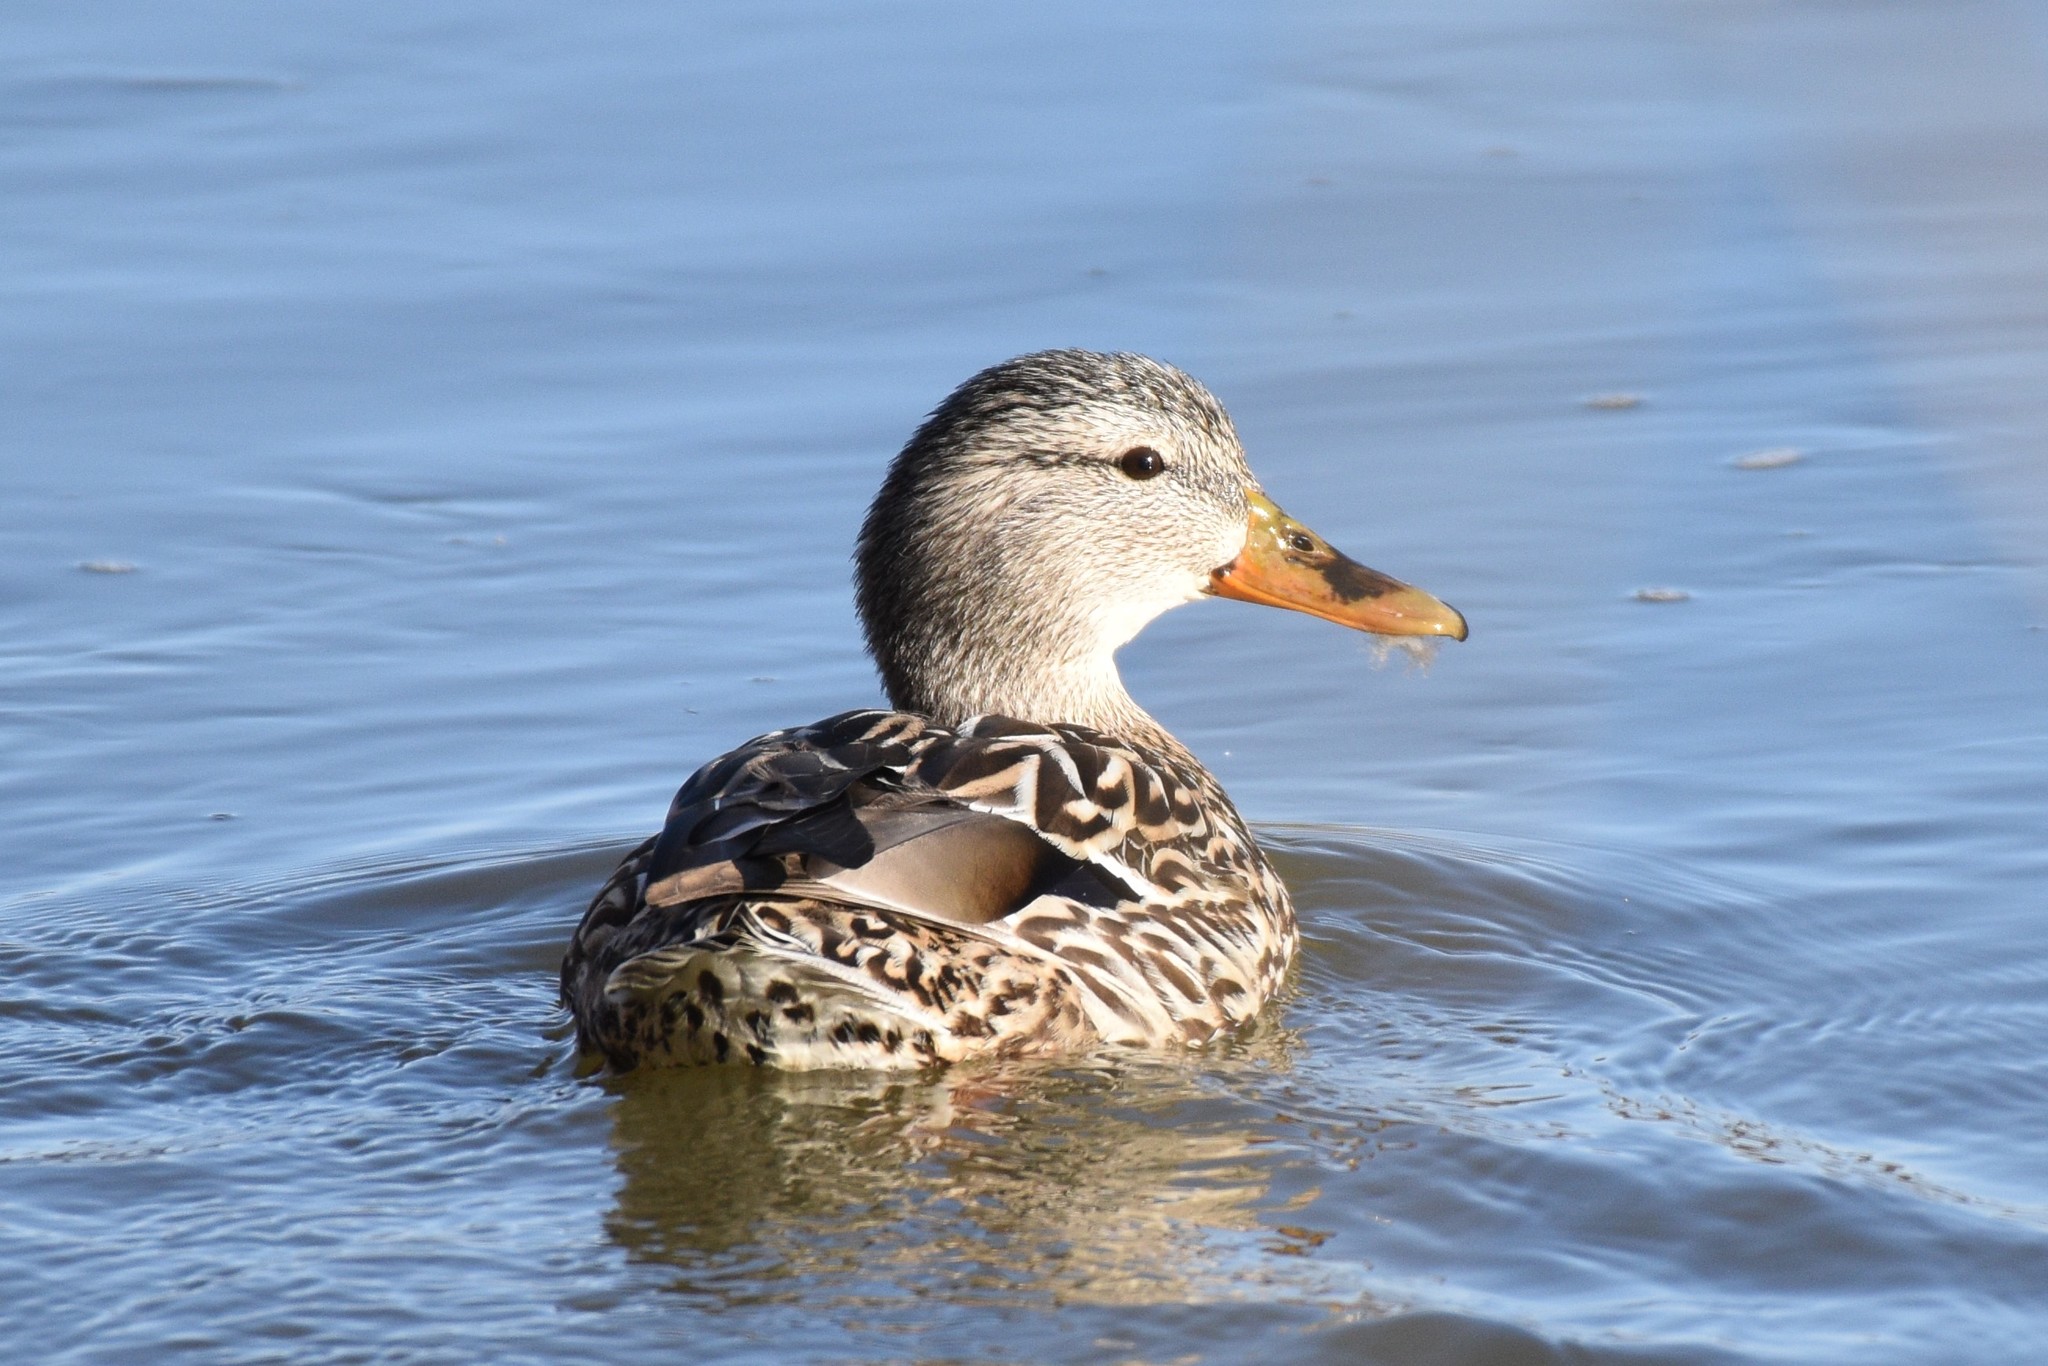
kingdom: Animalia
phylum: Chordata
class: Aves
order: Anseriformes
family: Anatidae
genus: Anas
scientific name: Anas platyrhynchos
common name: Mallard
